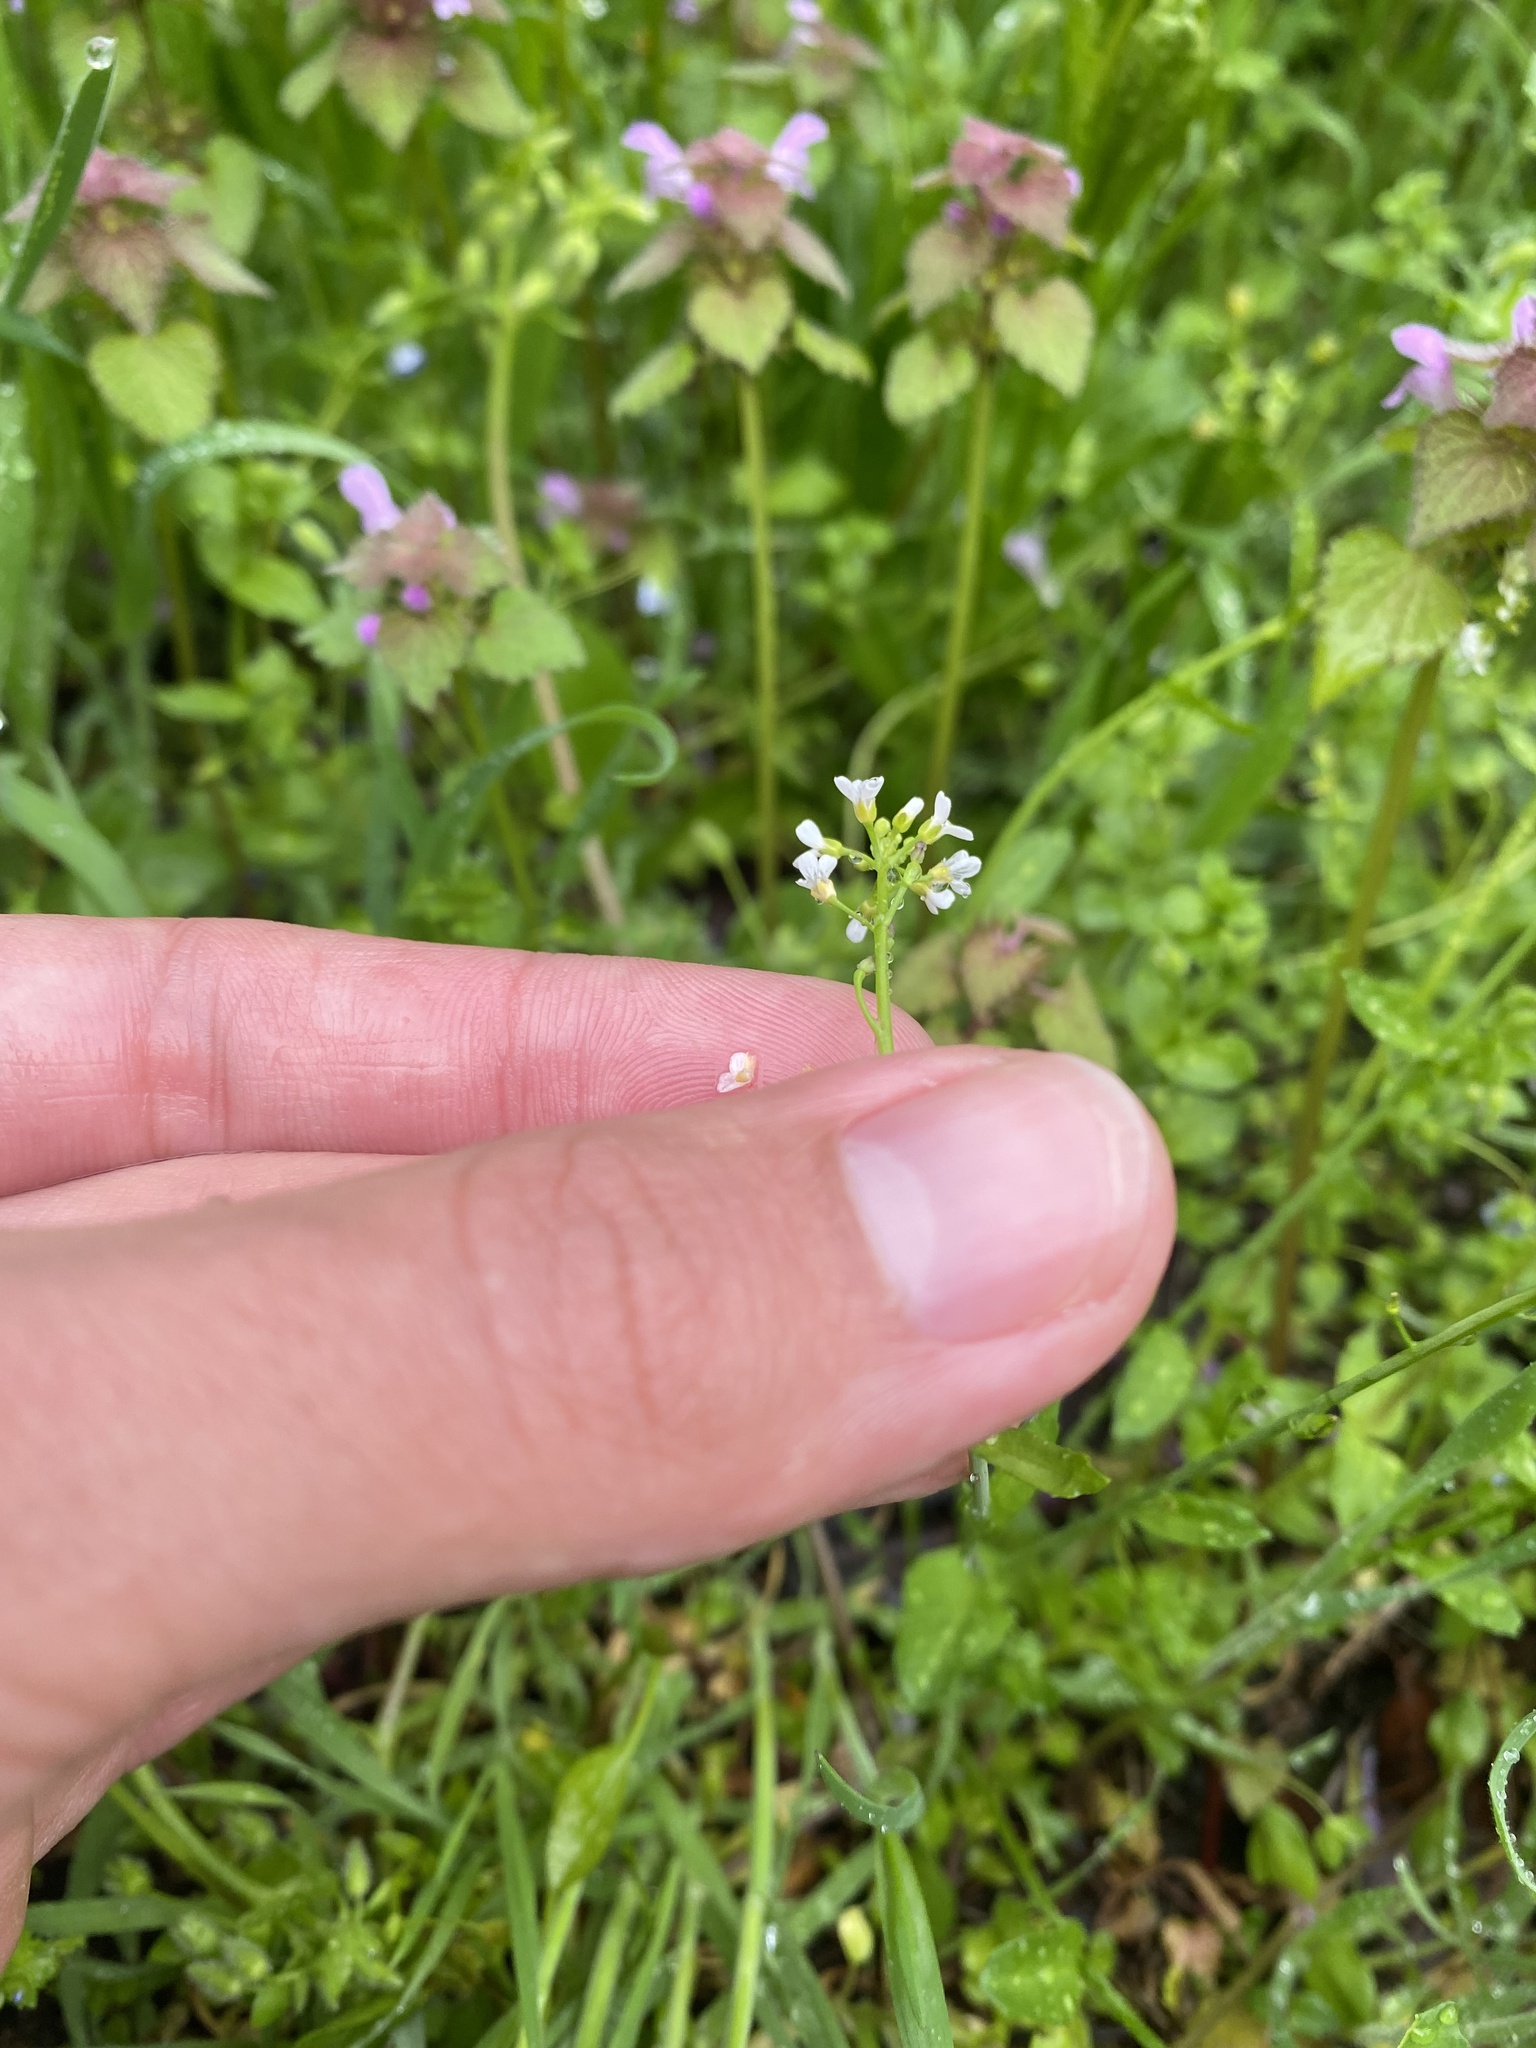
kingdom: Plantae
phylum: Tracheophyta
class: Magnoliopsida
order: Brassicales
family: Brassicaceae
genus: Calepina
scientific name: Calepina irregularis
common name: White ballmustard
